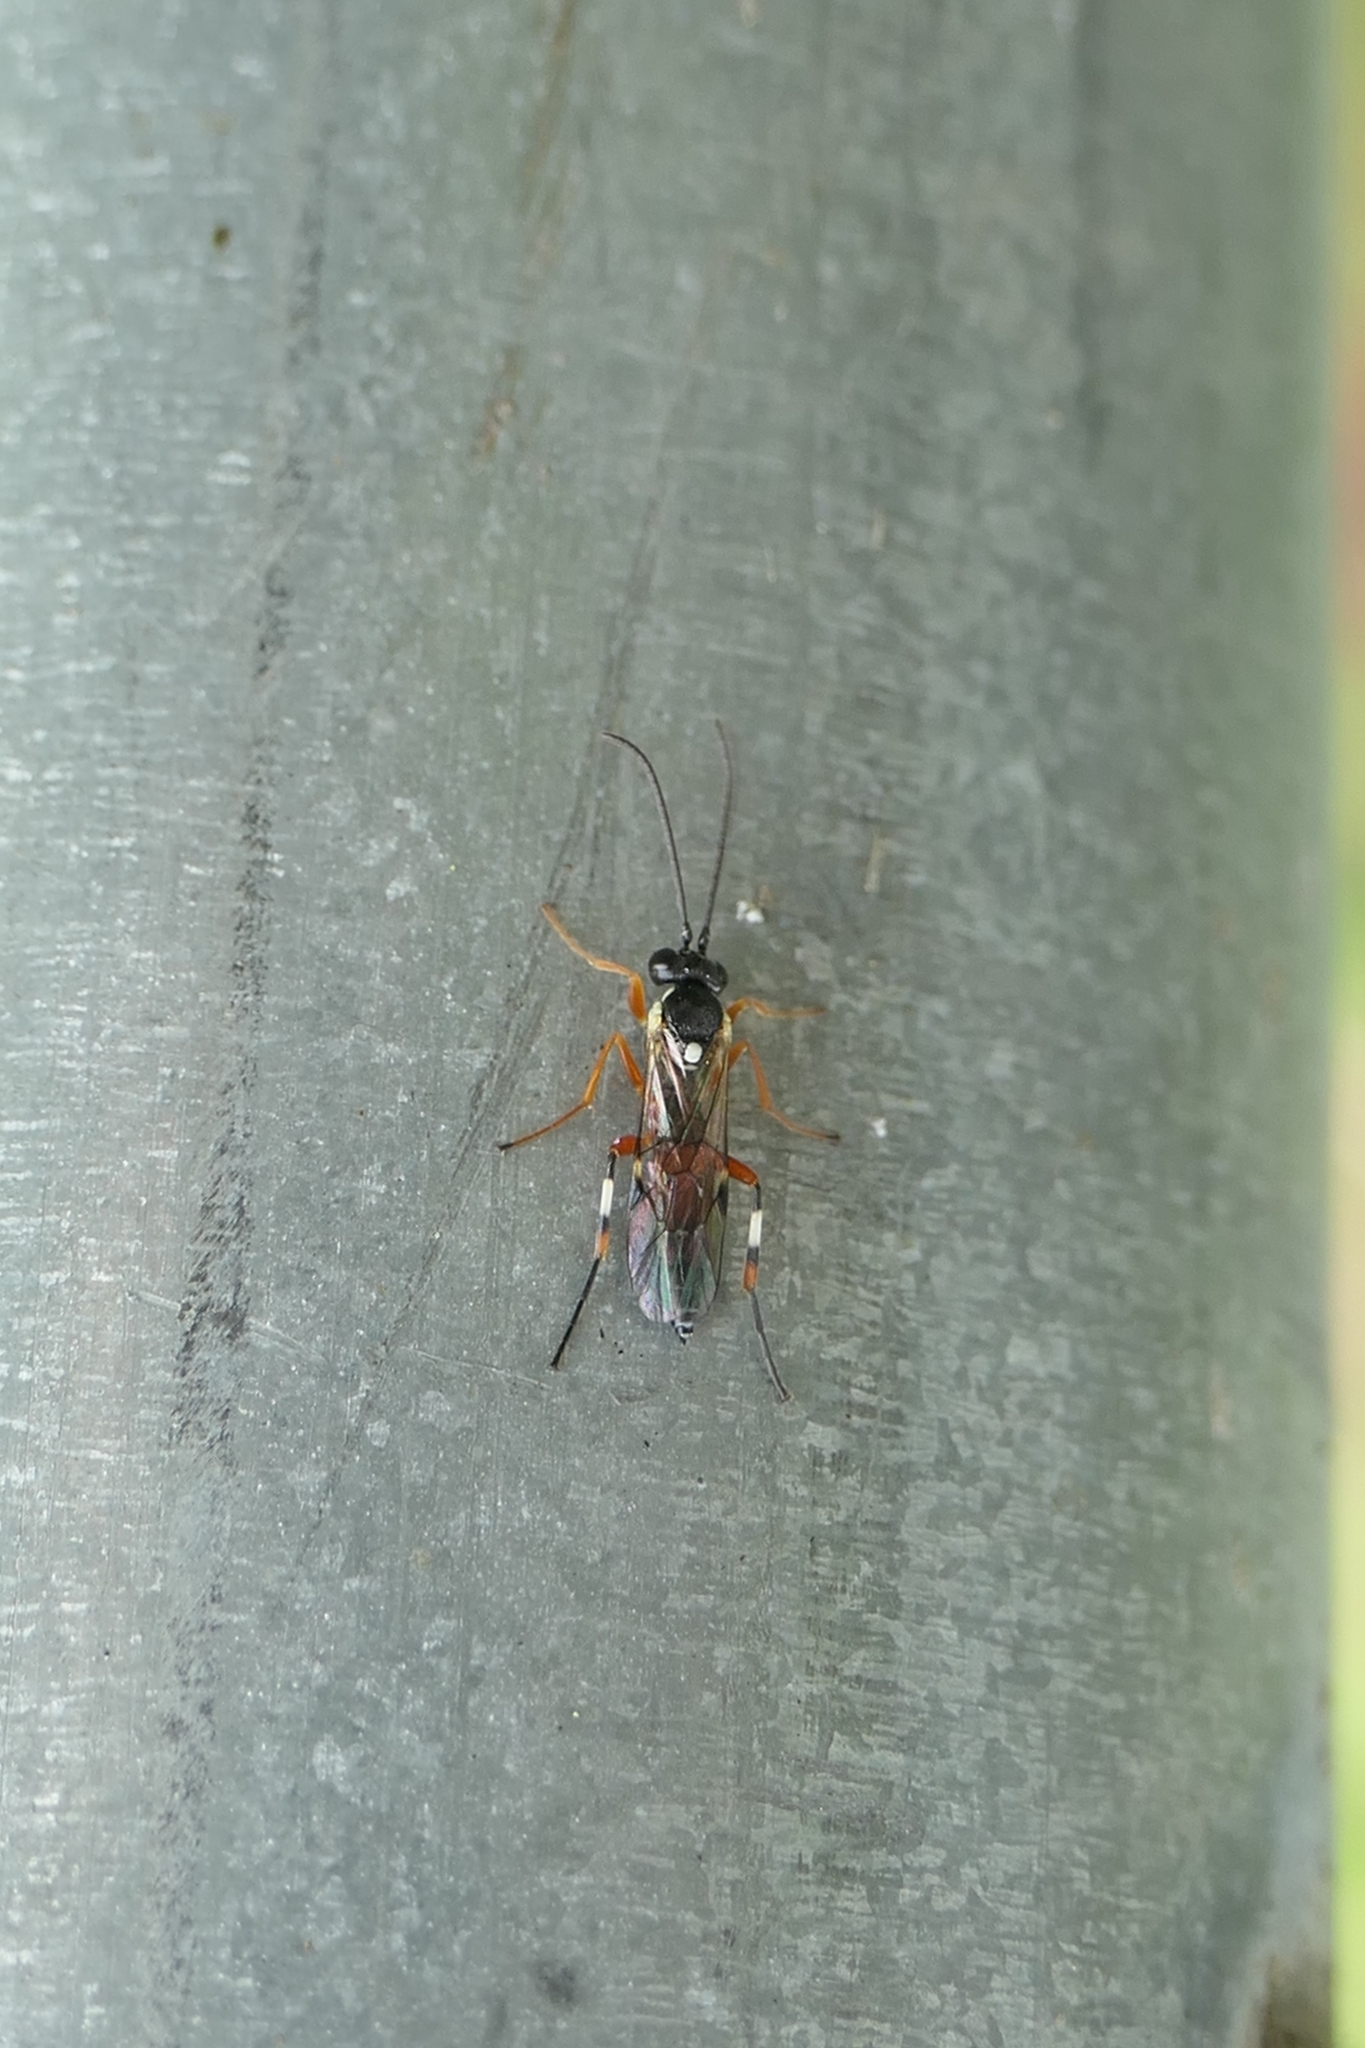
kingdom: Animalia
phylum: Arthropoda
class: Insecta
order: Hymenoptera
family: Ichneumonidae
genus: Diplazon
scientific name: Diplazon laetatorius
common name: Parasitoid wasp
